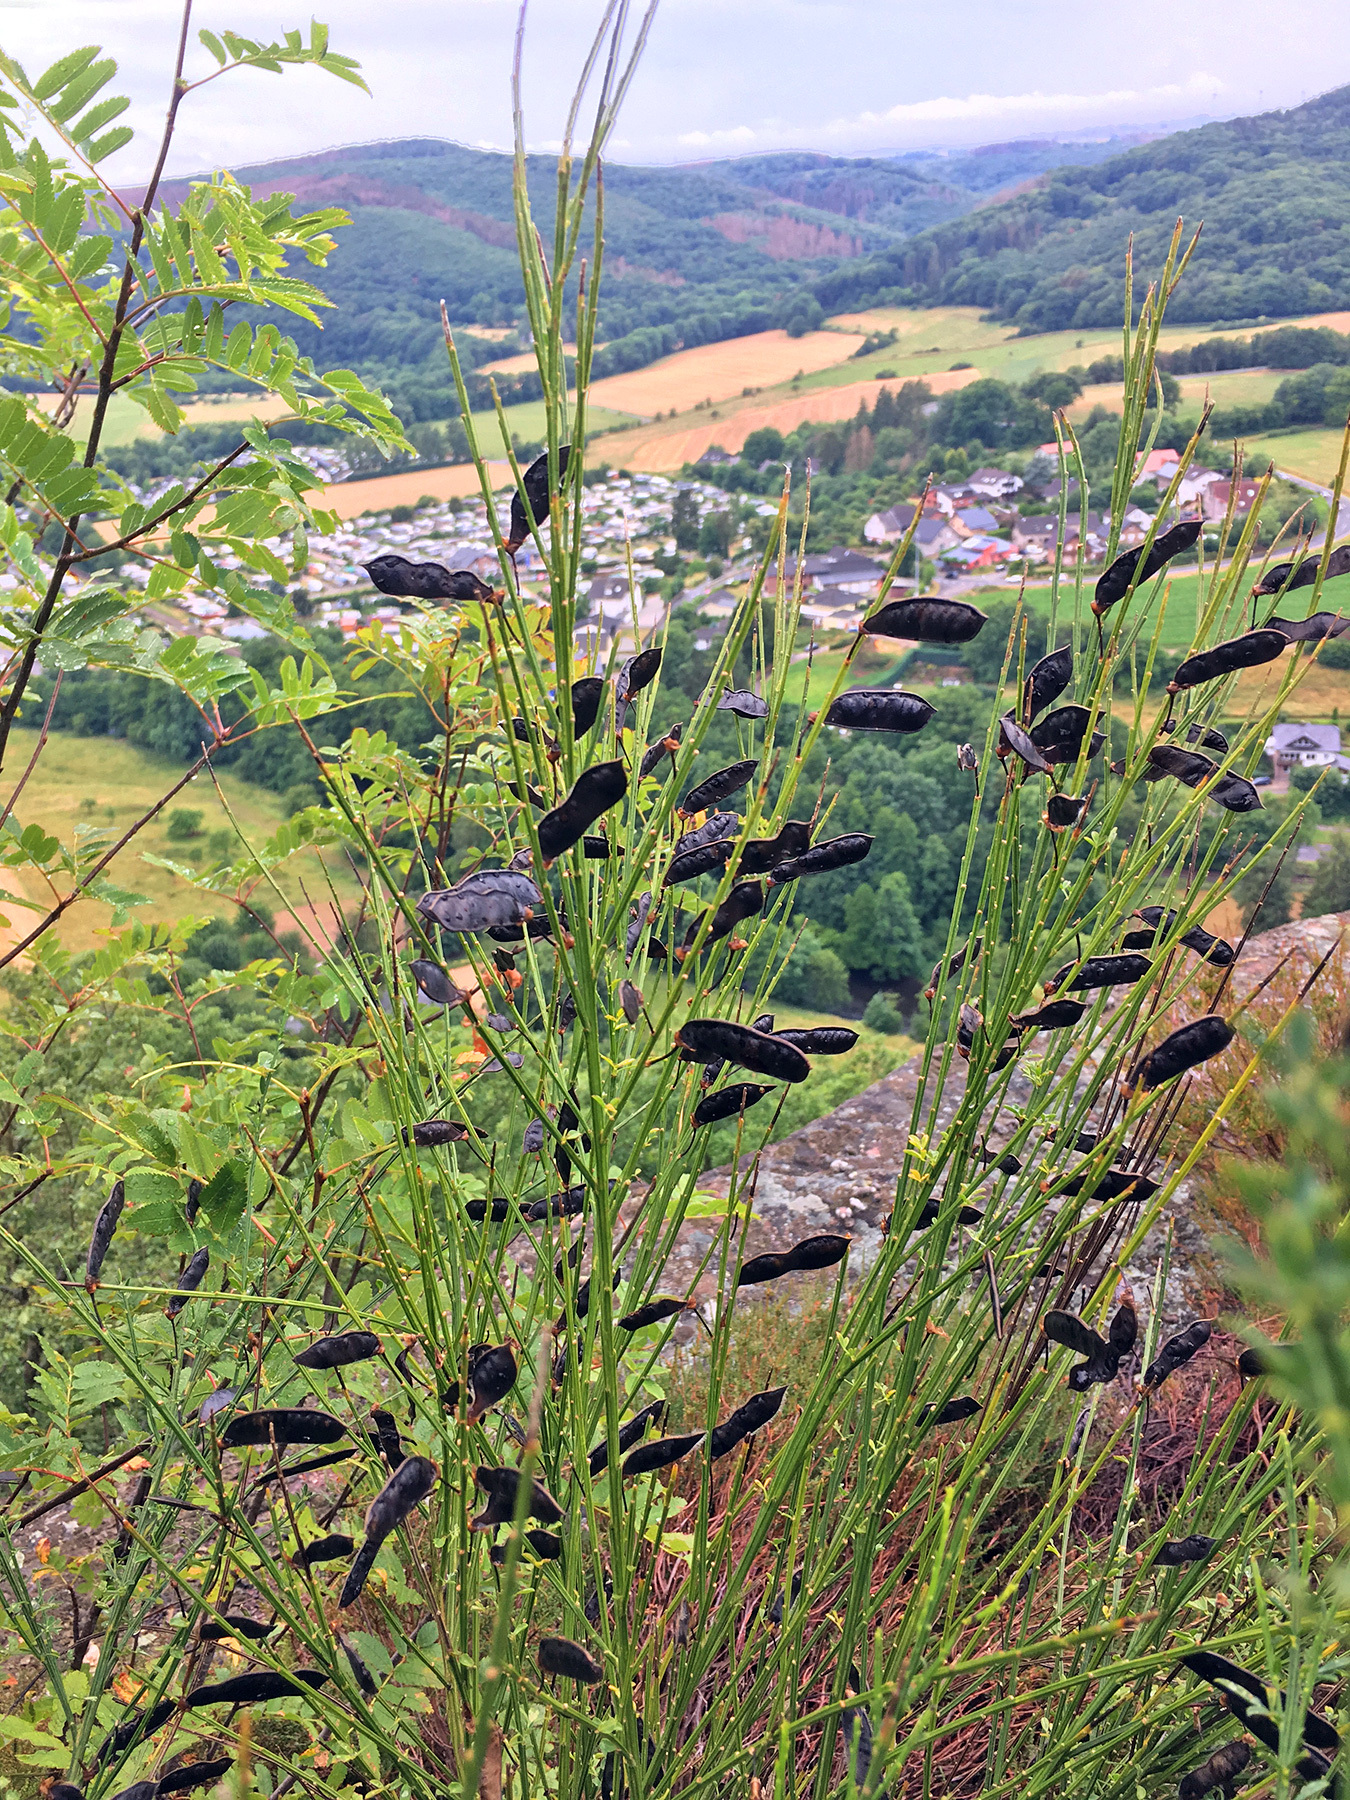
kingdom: Plantae
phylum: Tracheophyta
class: Magnoliopsida
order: Fabales
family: Fabaceae
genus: Cytisus
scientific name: Cytisus scoparius
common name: Scotch broom
